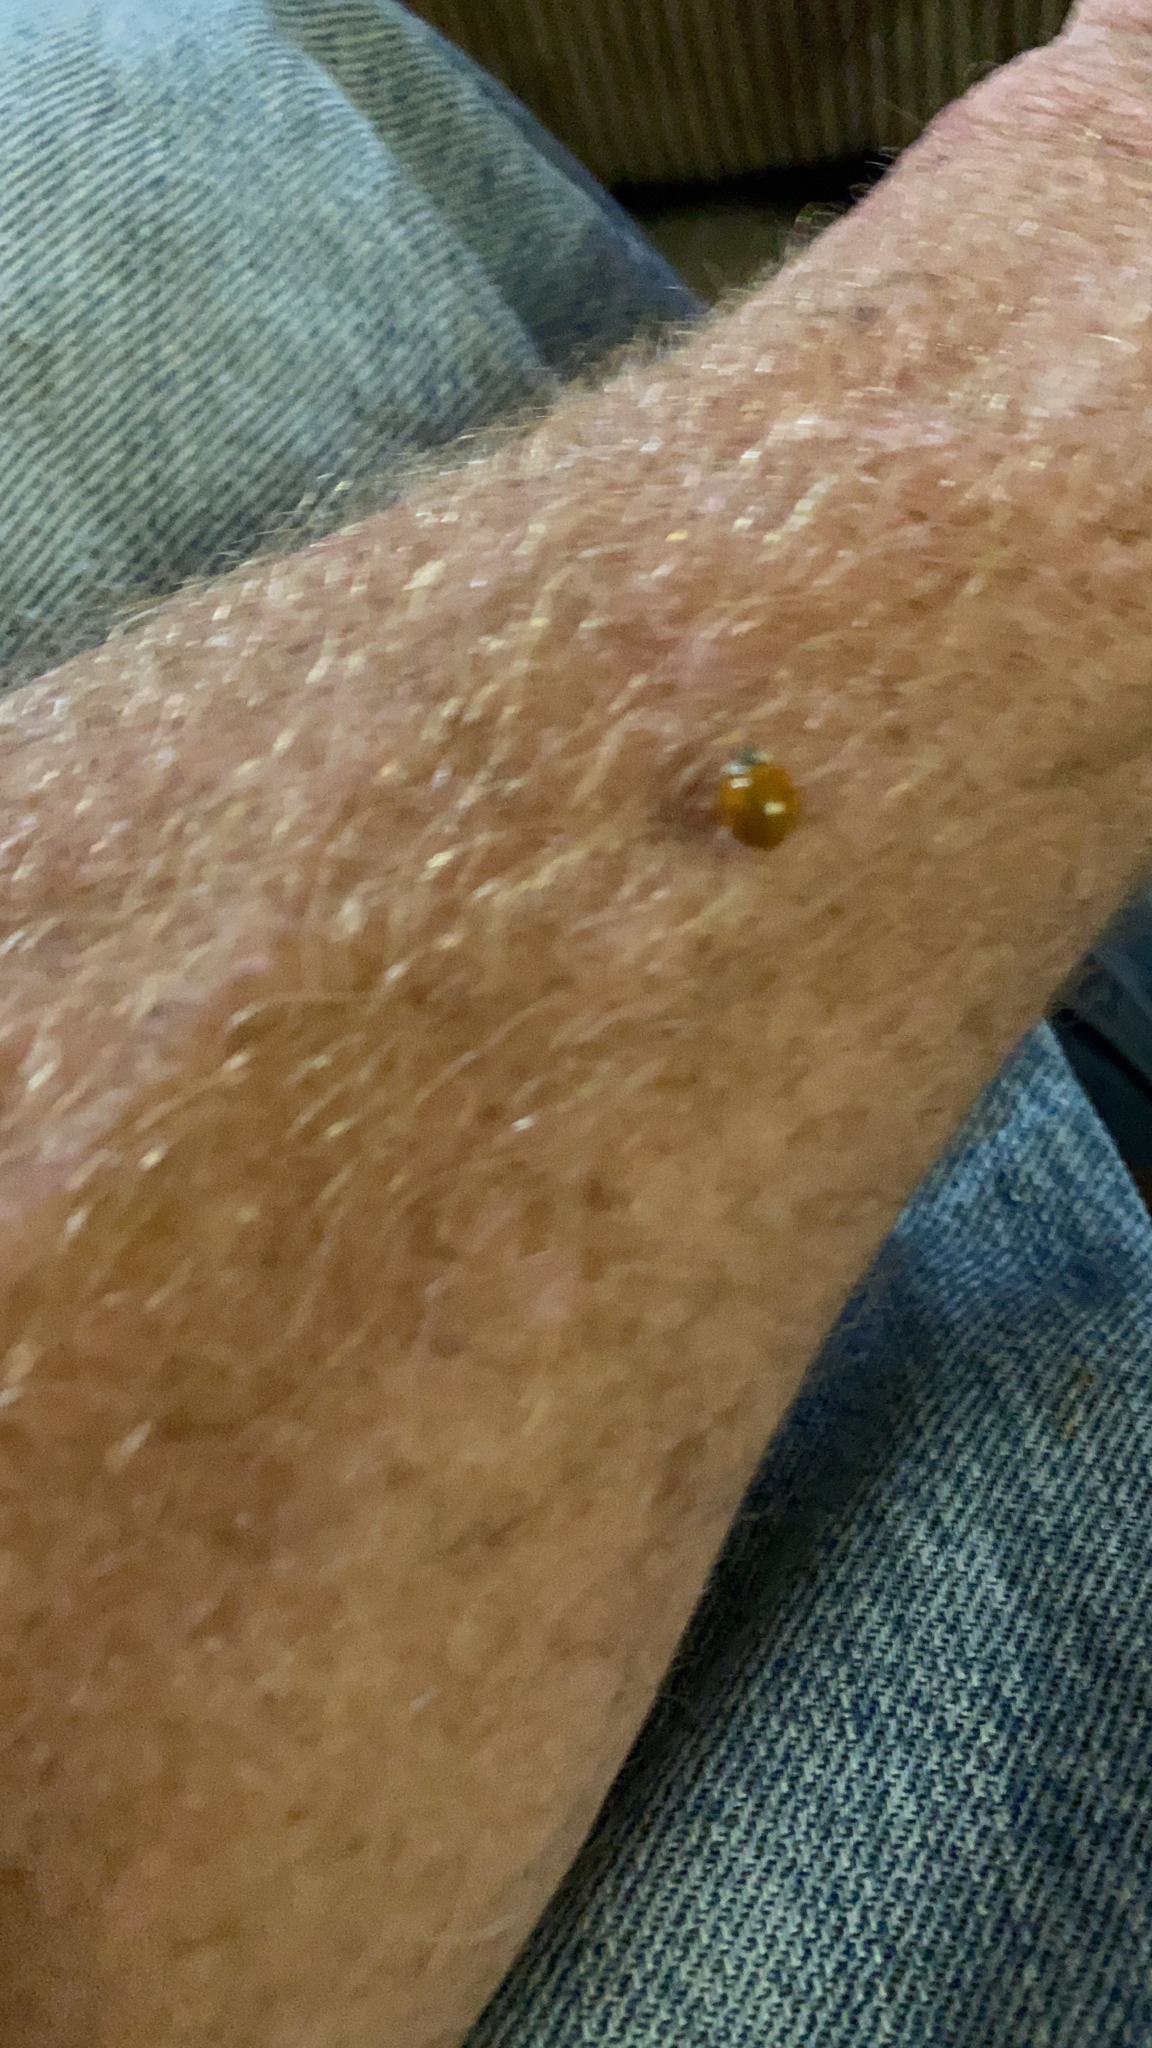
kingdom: Animalia
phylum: Arthropoda
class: Insecta
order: Coleoptera
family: Coccinellidae
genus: Cycloneda
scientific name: Cycloneda munda
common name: Polished lady beetle
